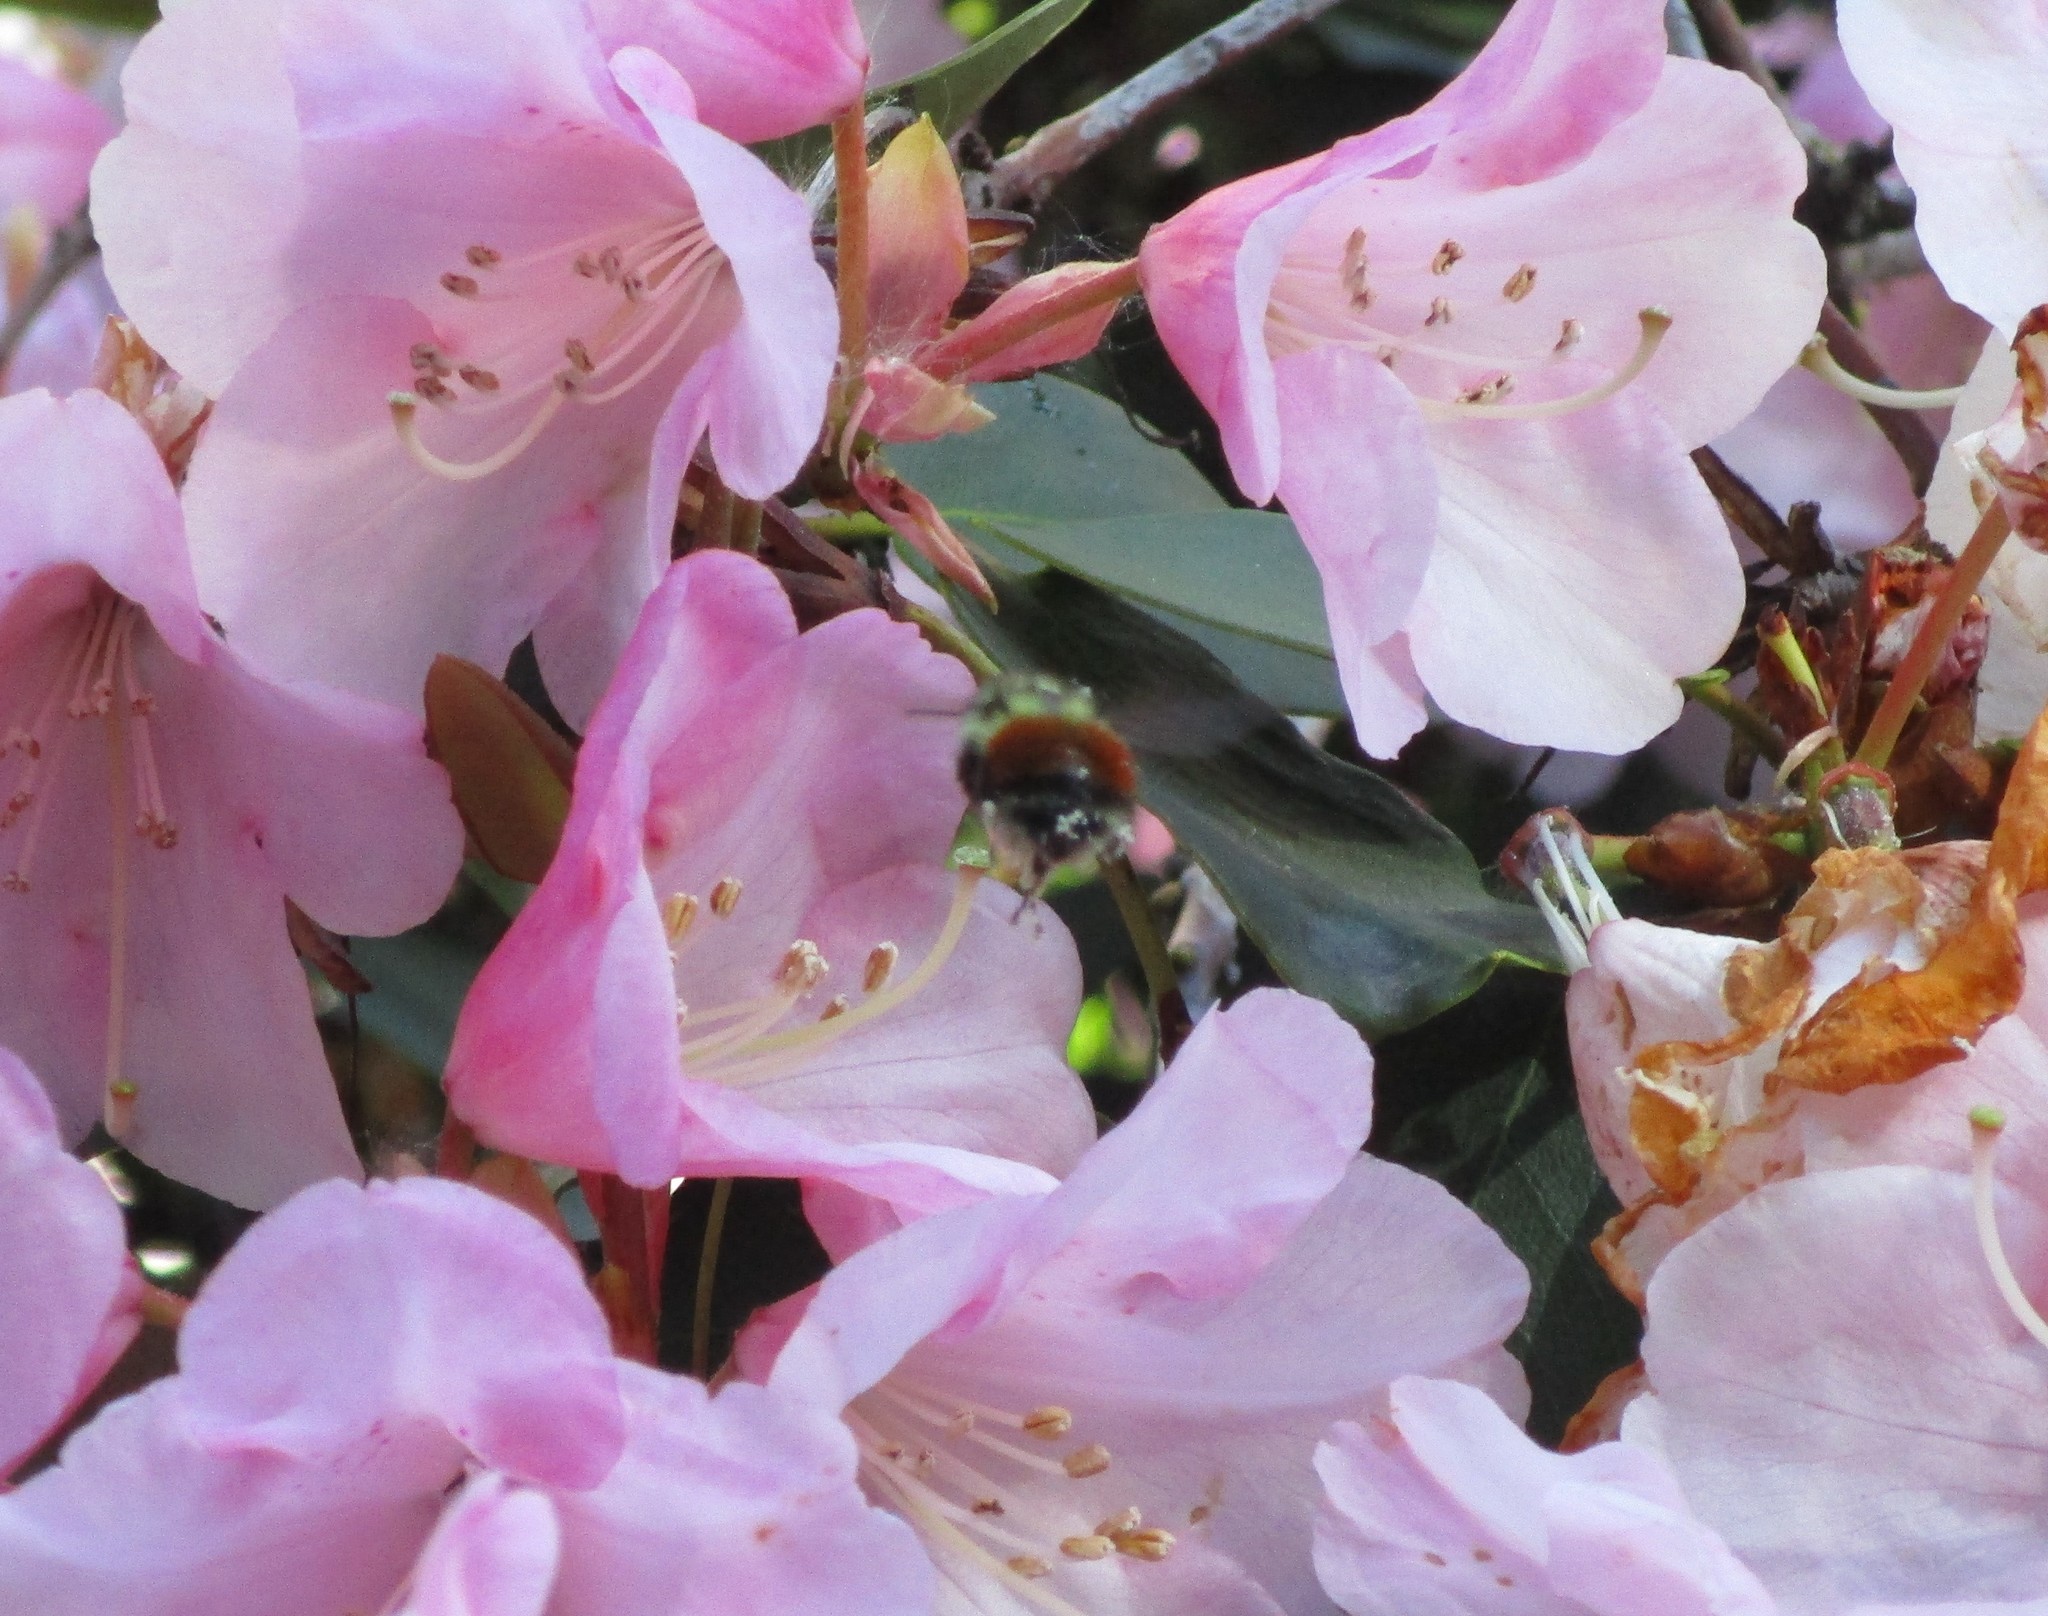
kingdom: Animalia
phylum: Arthropoda
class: Insecta
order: Hymenoptera
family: Apidae
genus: Bombus
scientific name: Bombus melanopygus
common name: Black tail bumble bee
